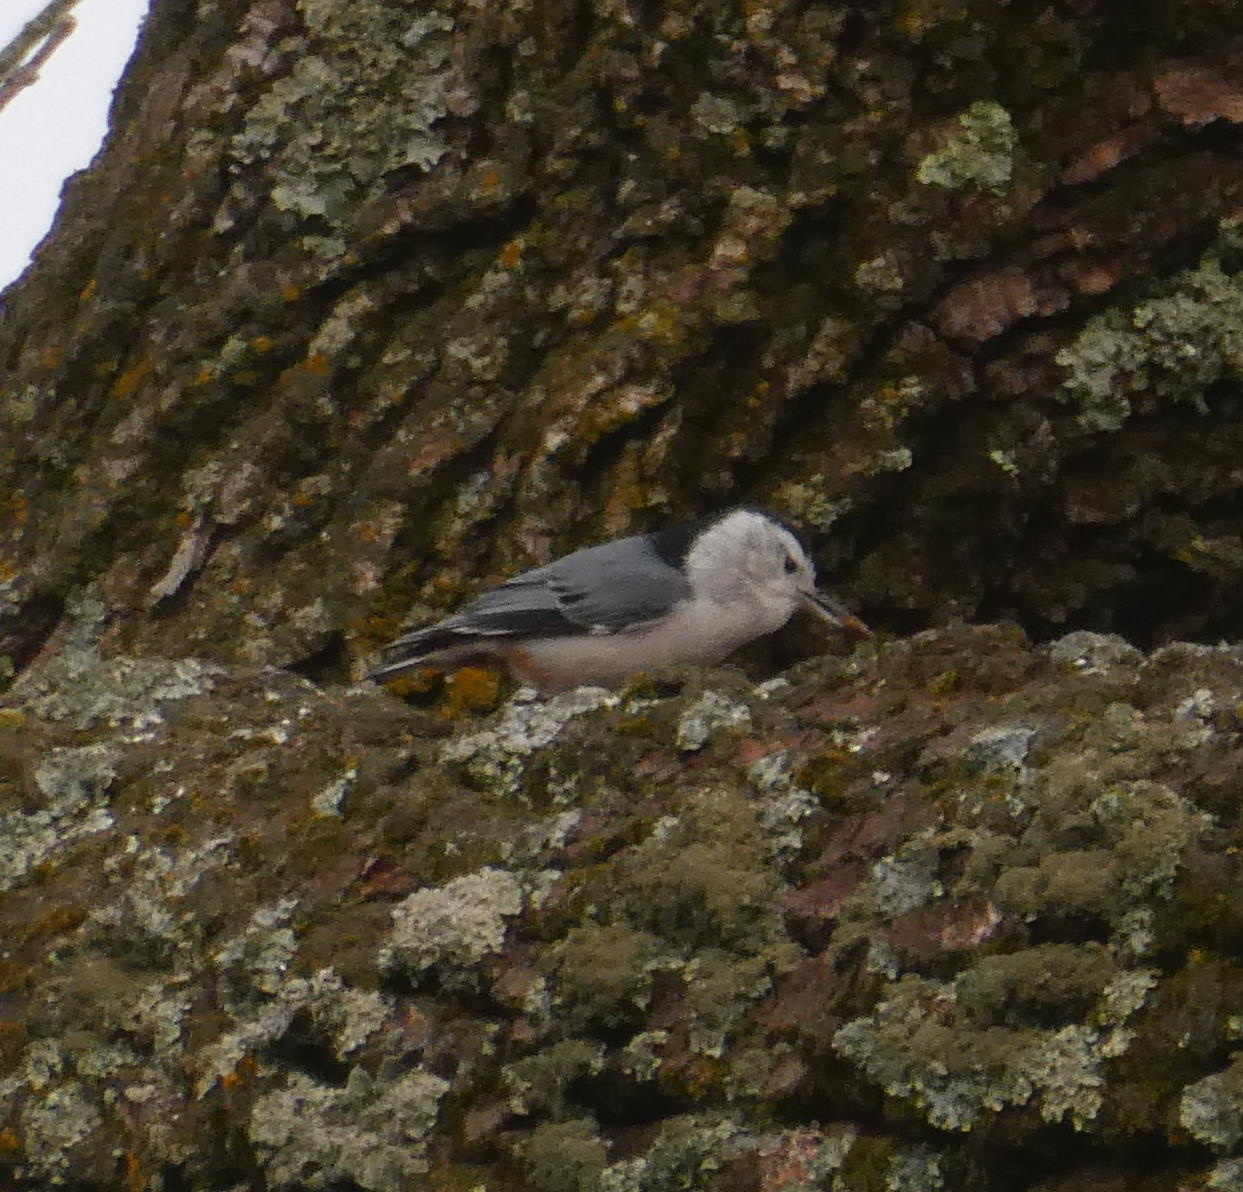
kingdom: Animalia
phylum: Chordata
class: Aves
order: Passeriformes
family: Sittidae
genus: Sitta
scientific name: Sitta carolinensis
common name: White-breasted nuthatch
